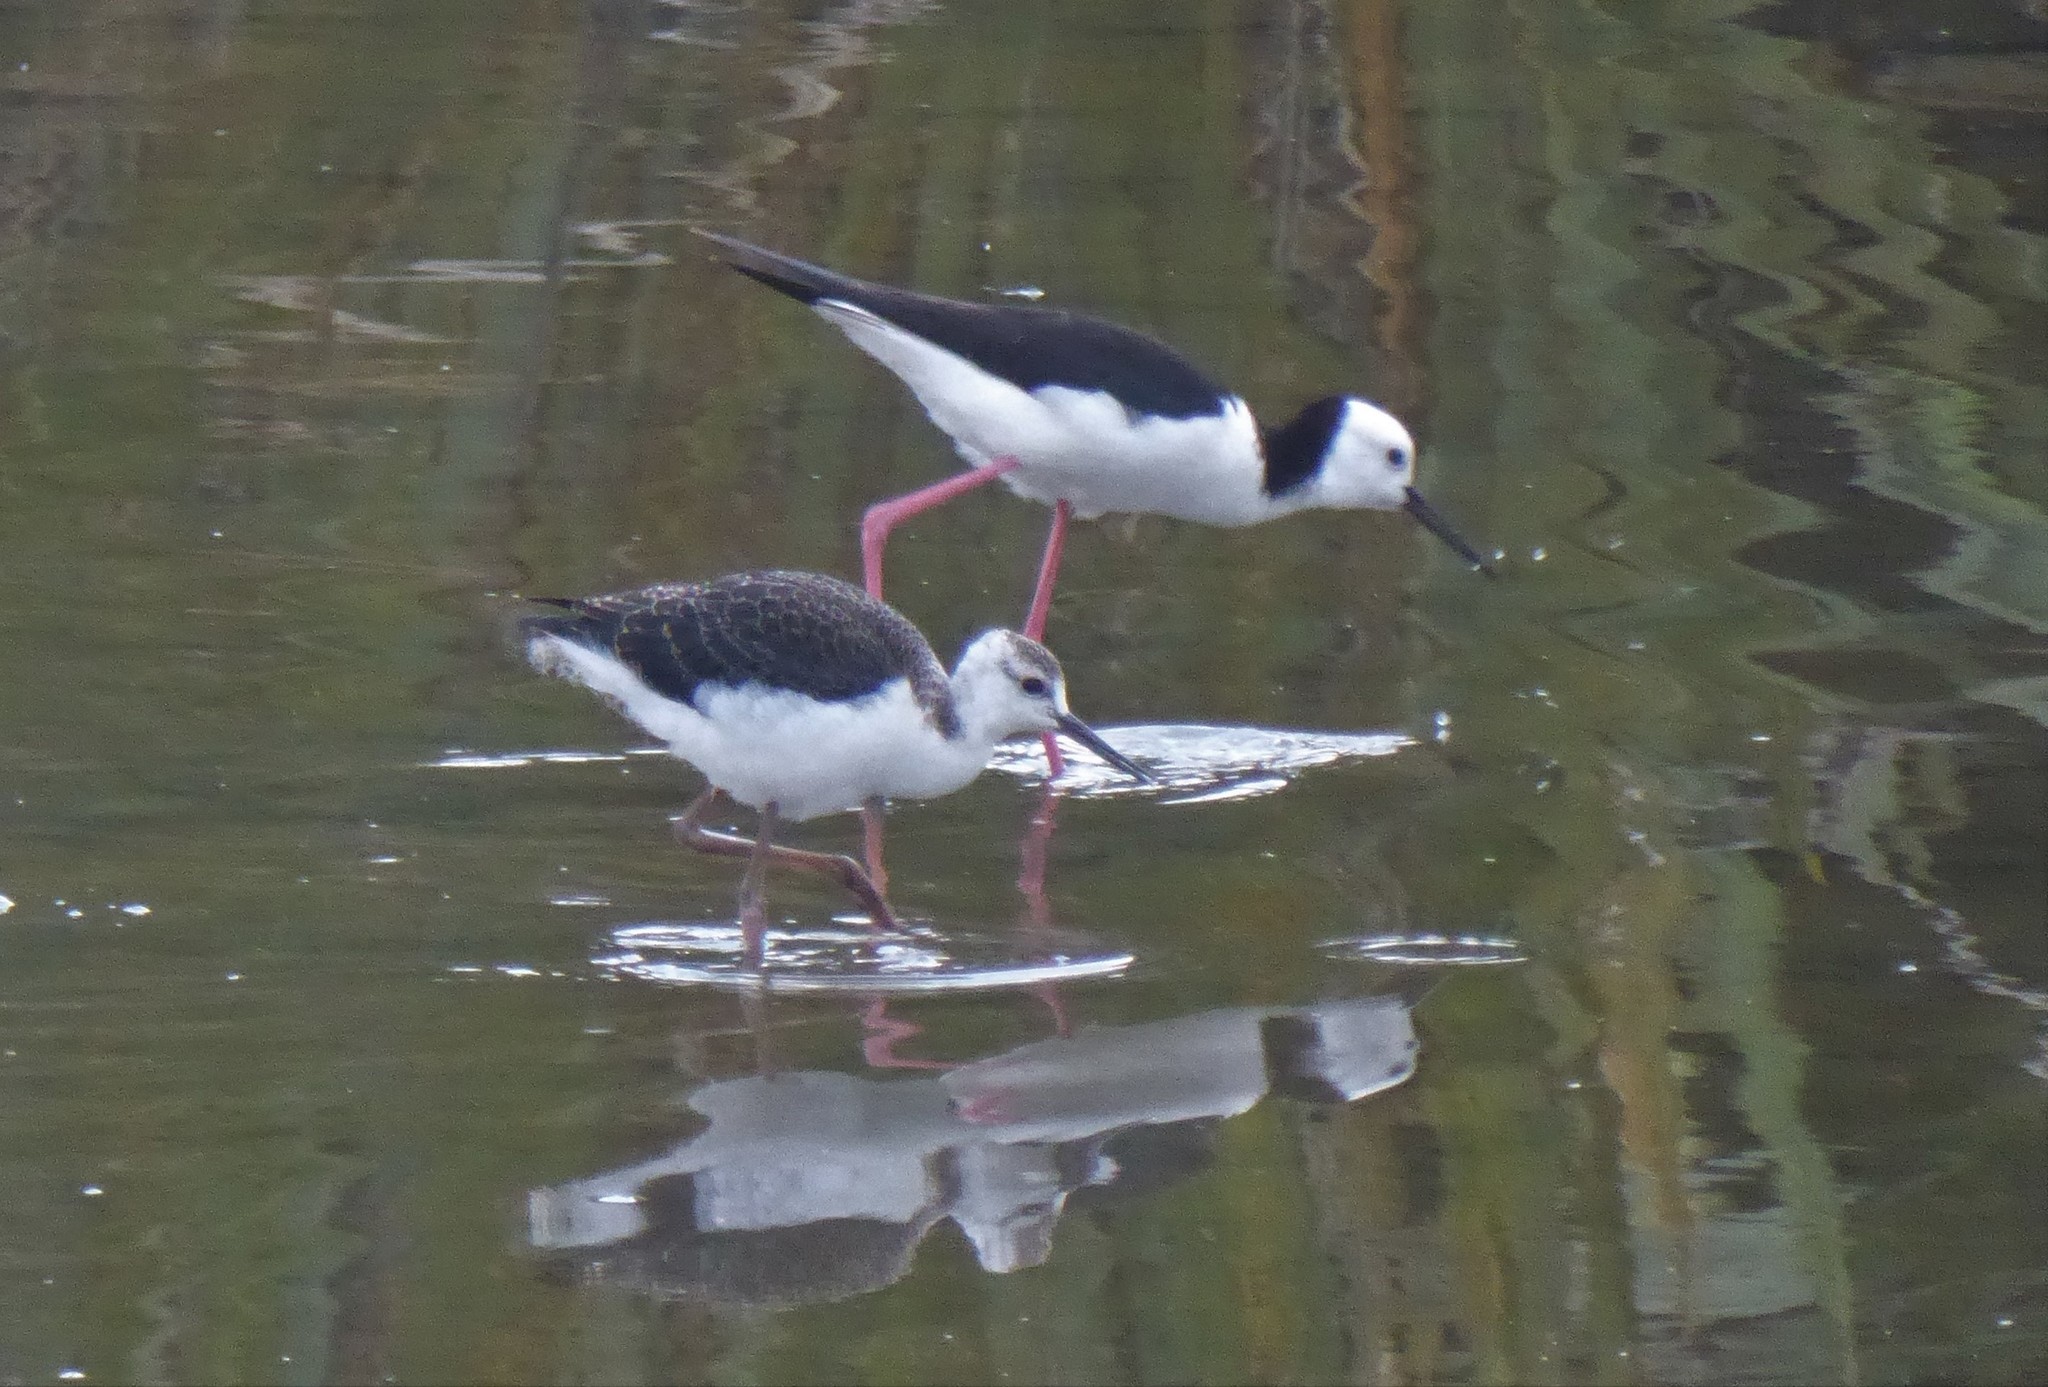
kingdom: Animalia
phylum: Chordata
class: Aves
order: Charadriiformes
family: Recurvirostridae
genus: Himantopus
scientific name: Himantopus leucocephalus
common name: White-headed stilt
